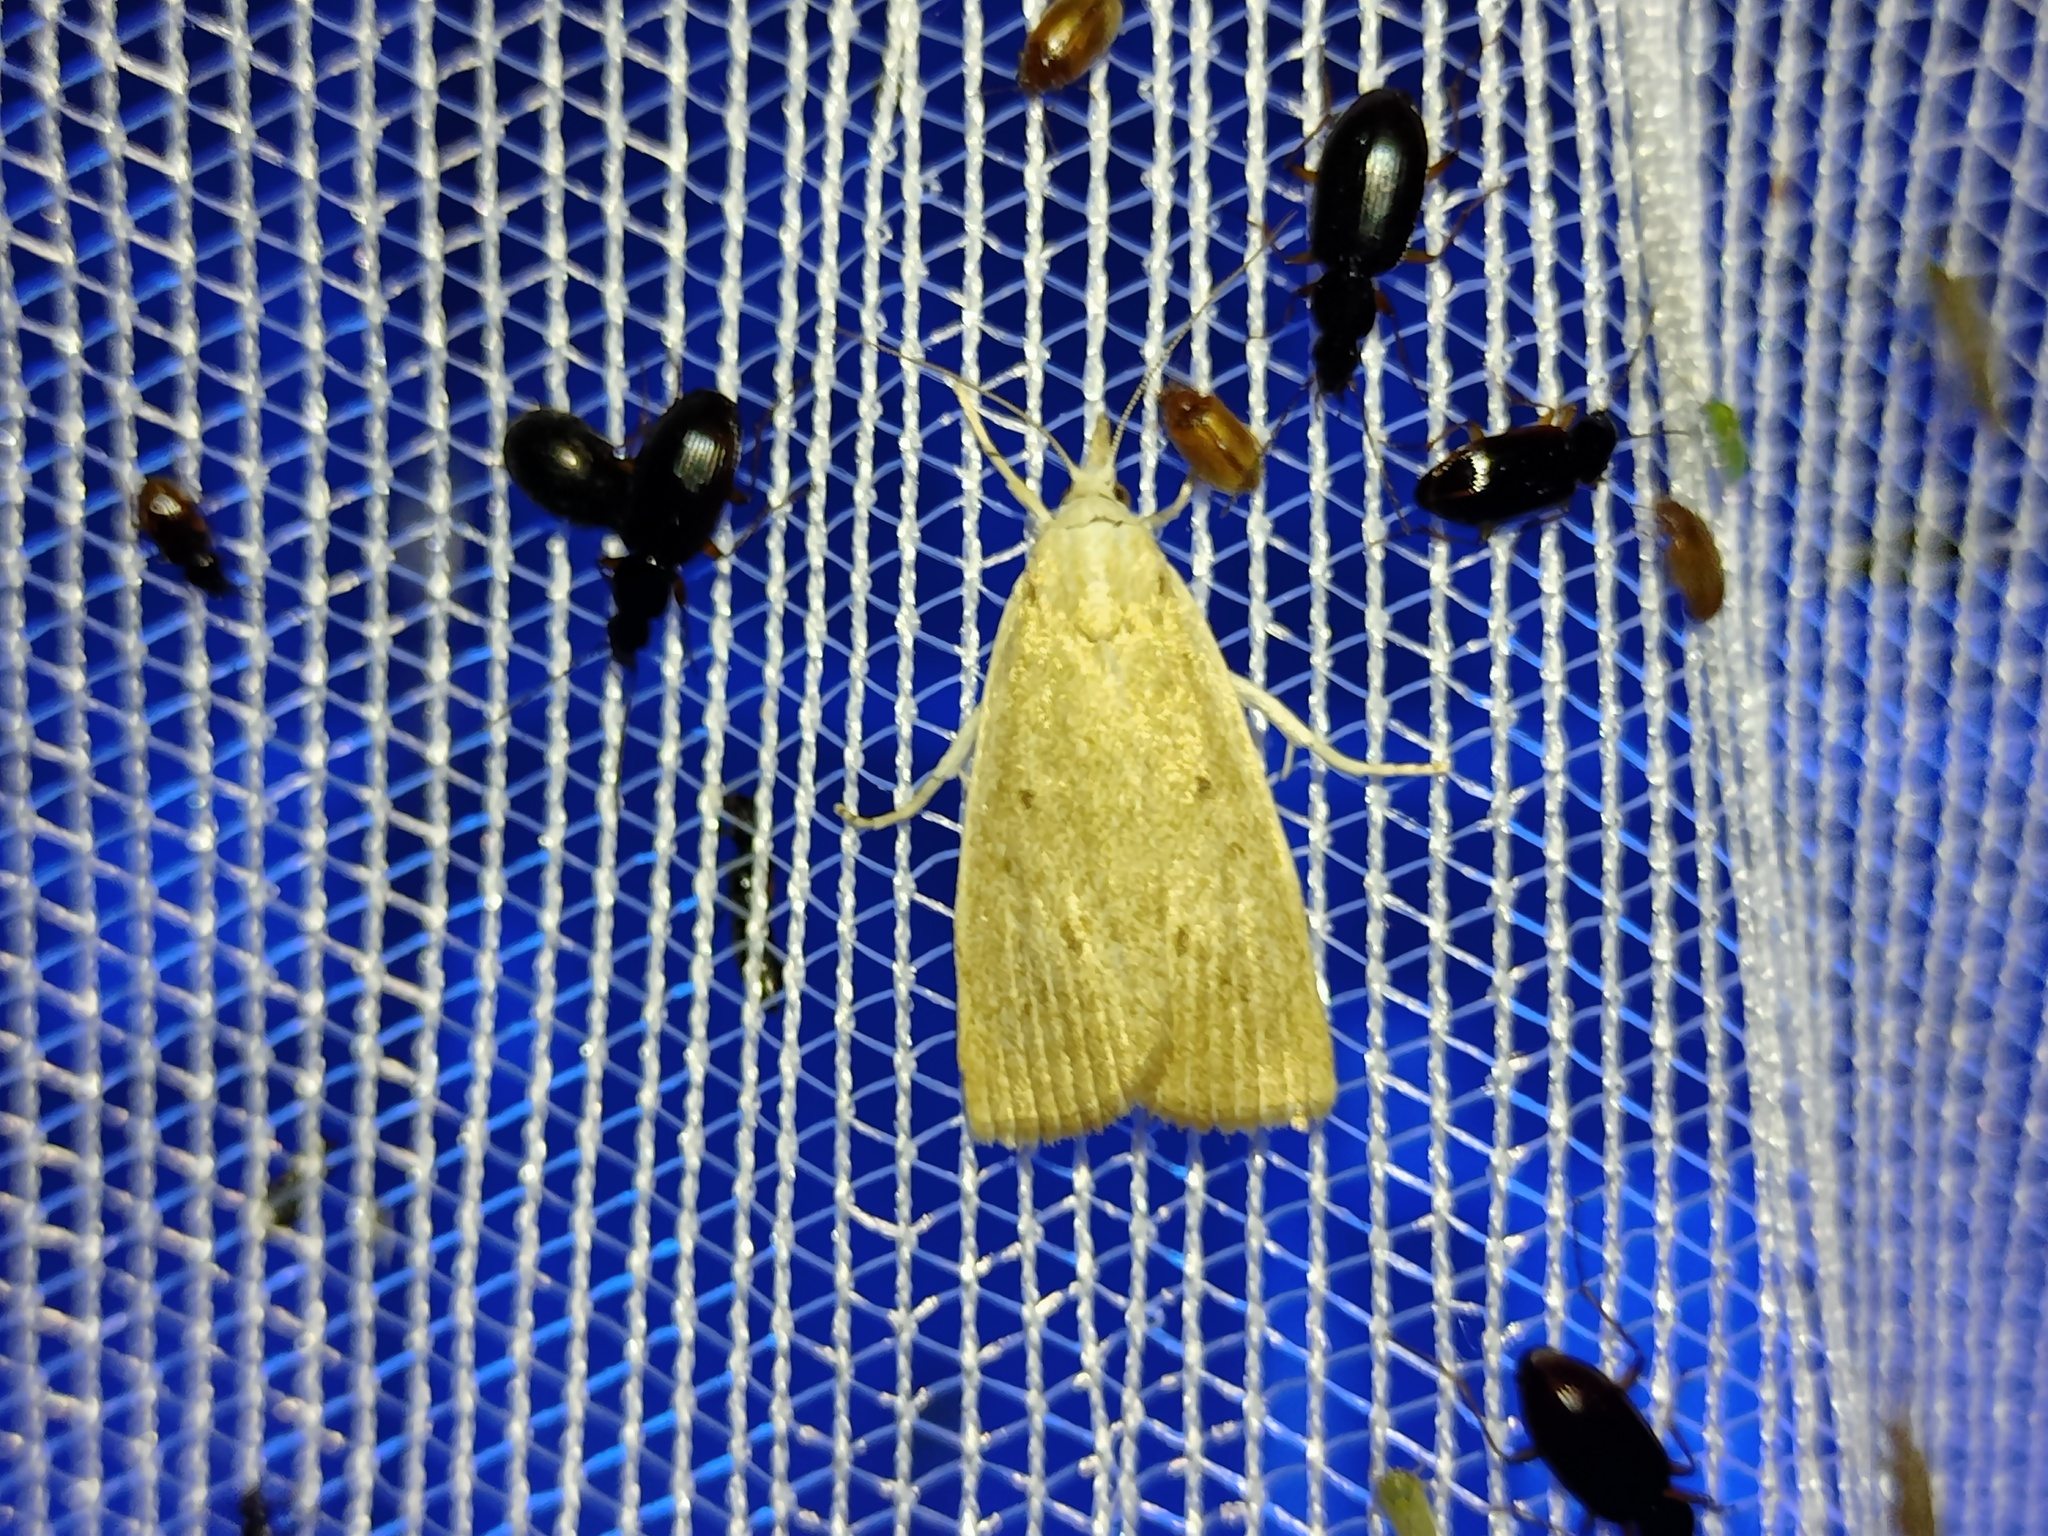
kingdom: Animalia
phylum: Arthropoda
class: Insecta
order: Lepidoptera
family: Crambidae
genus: Calamotropha
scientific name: Calamotropha paludella
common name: Bulrush veneer
